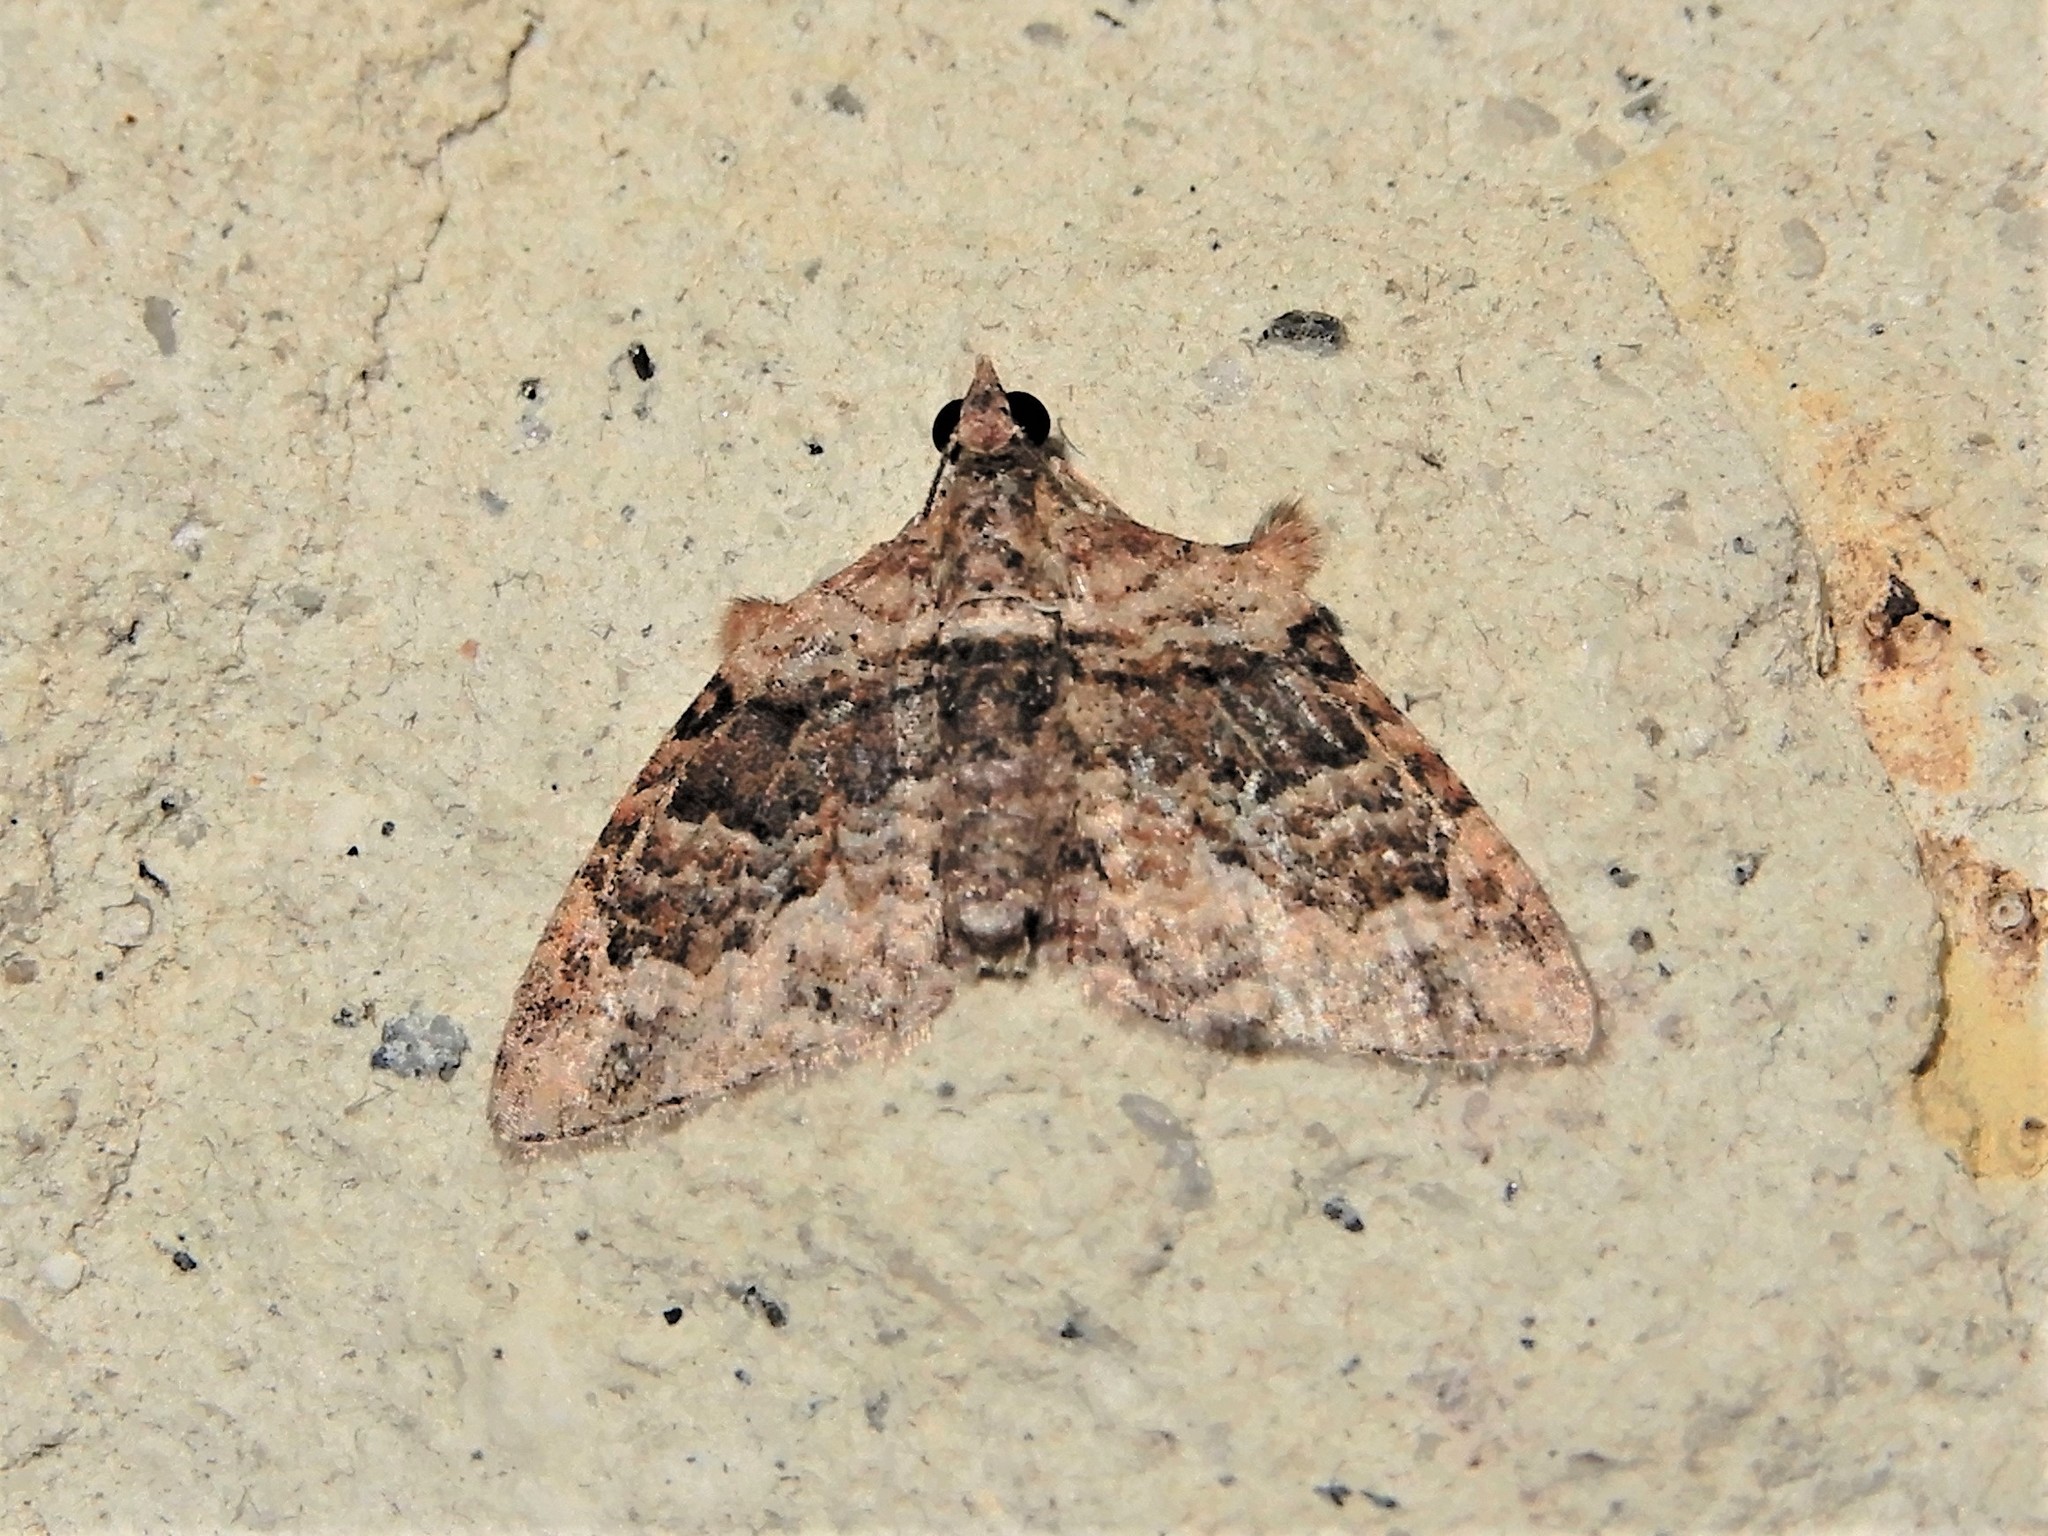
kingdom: Animalia
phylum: Arthropoda
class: Insecta
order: Lepidoptera
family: Geometridae
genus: Phrissogonus
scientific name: Phrissogonus laticostata
